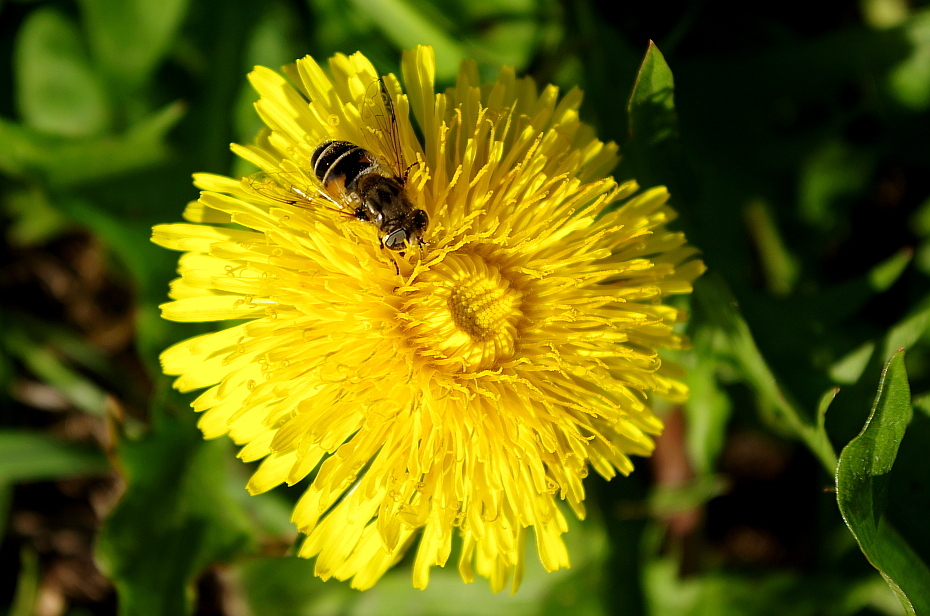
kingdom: Plantae
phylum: Tracheophyta
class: Magnoliopsida
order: Asterales
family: Asteraceae
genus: Taraxacum
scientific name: Taraxacum officinale
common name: Common dandelion
